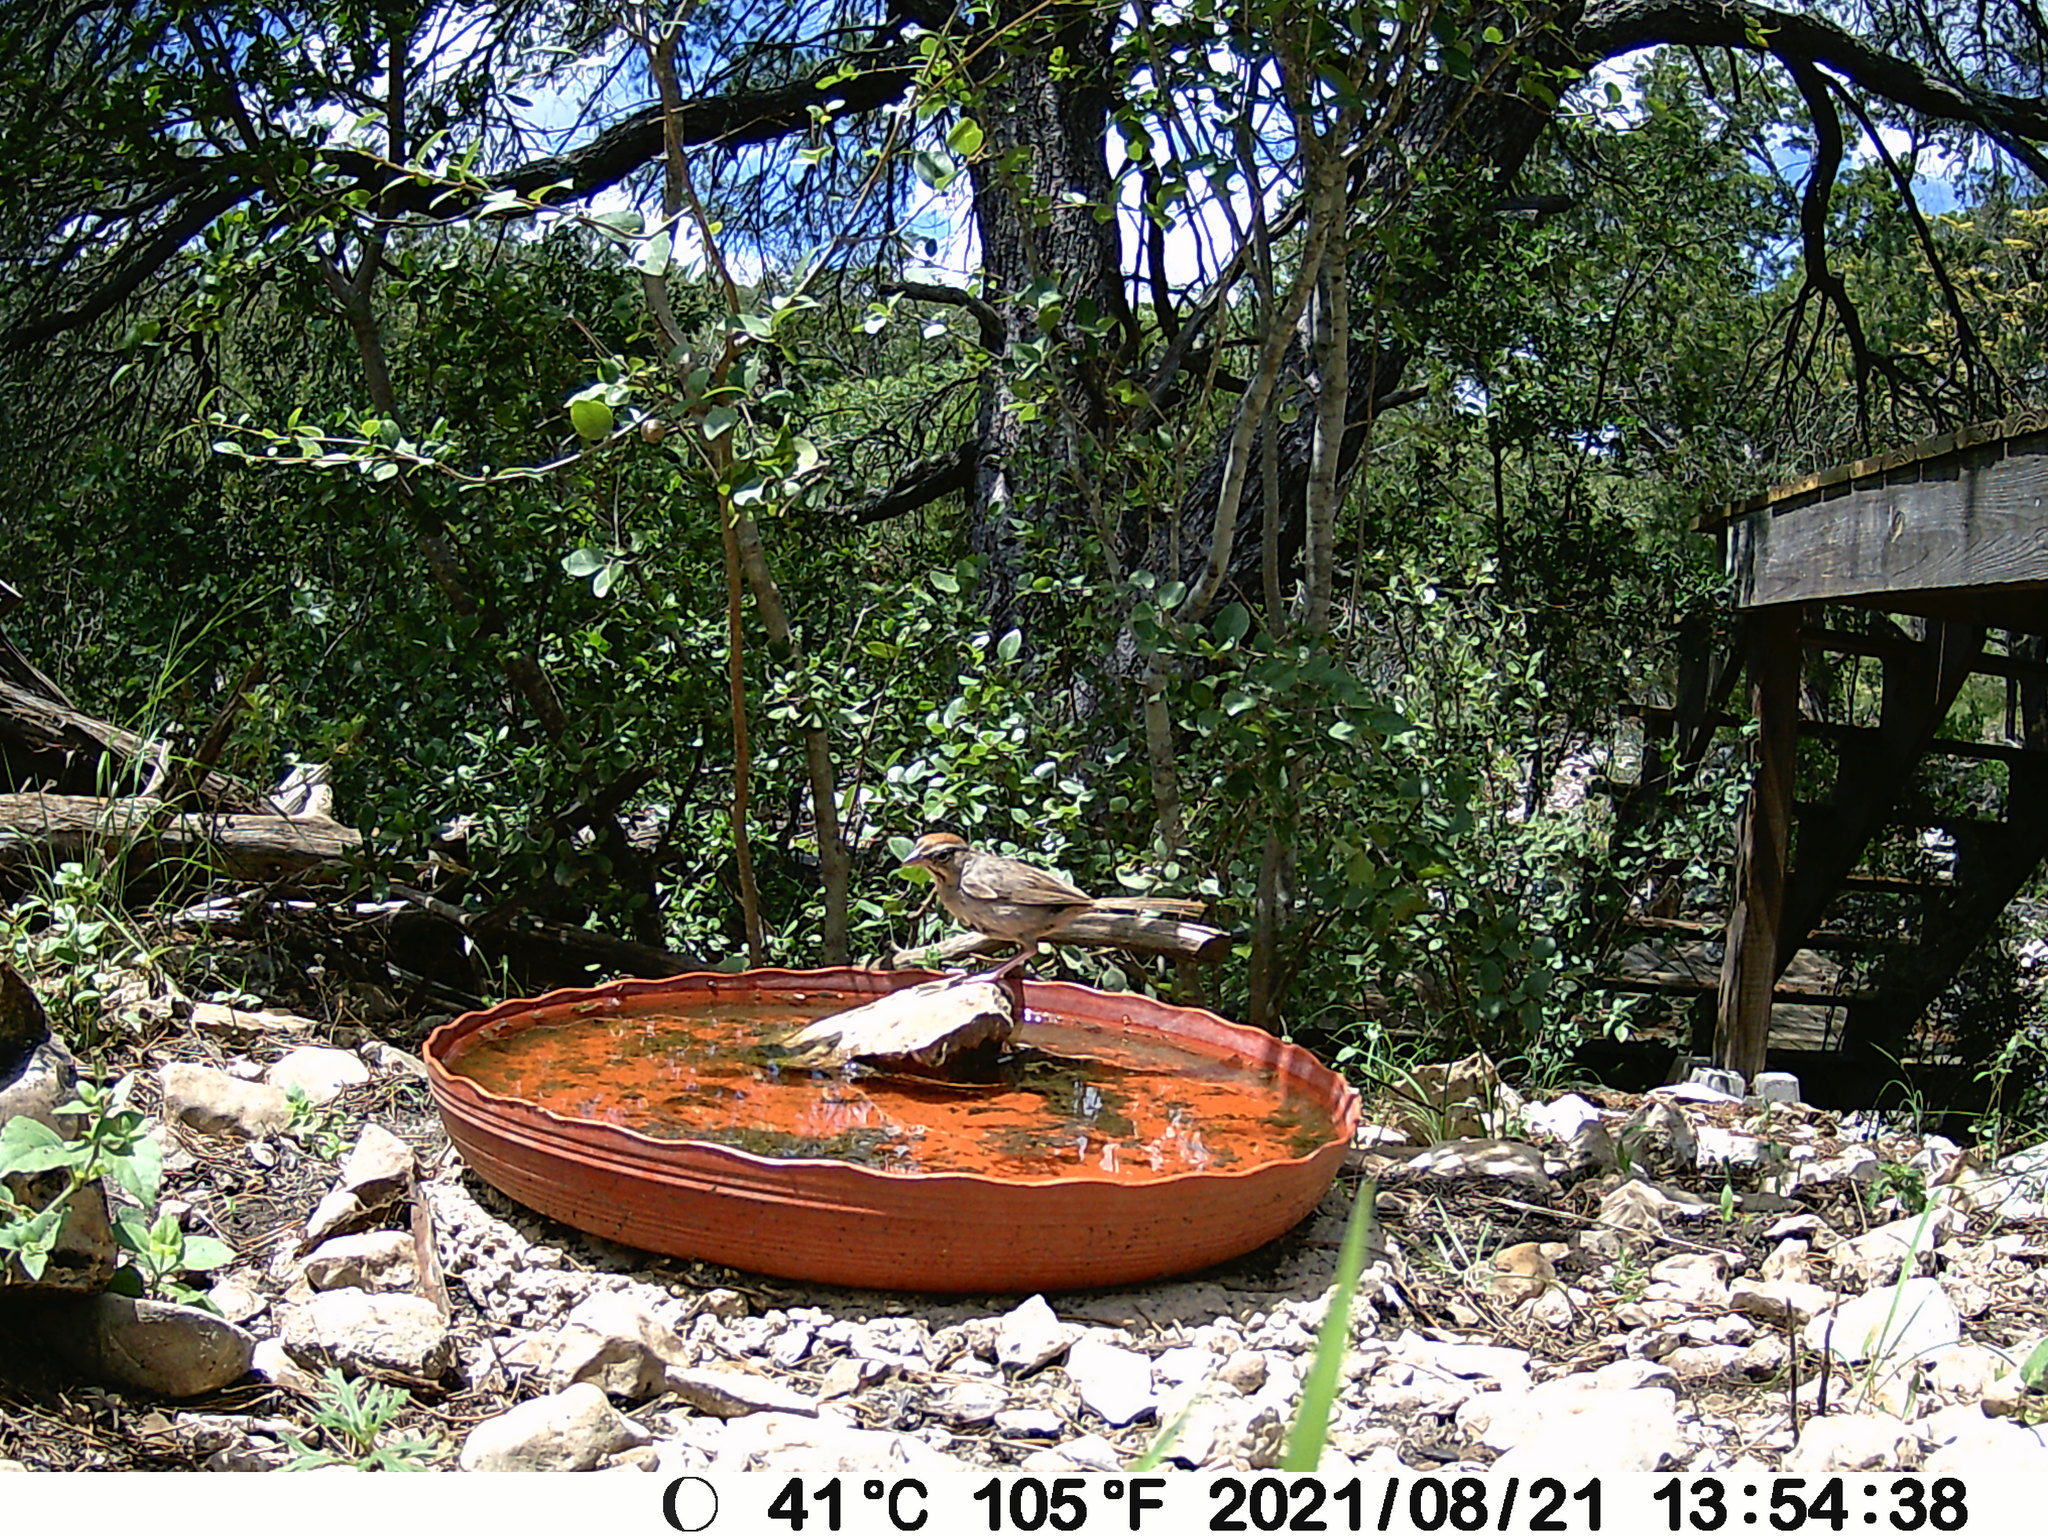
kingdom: Animalia
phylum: Chordata
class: Aves
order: Passeriformes
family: Passerellidae
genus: Aimophila
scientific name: Aimophila ruficeps
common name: Rufous-crowned sparrow
